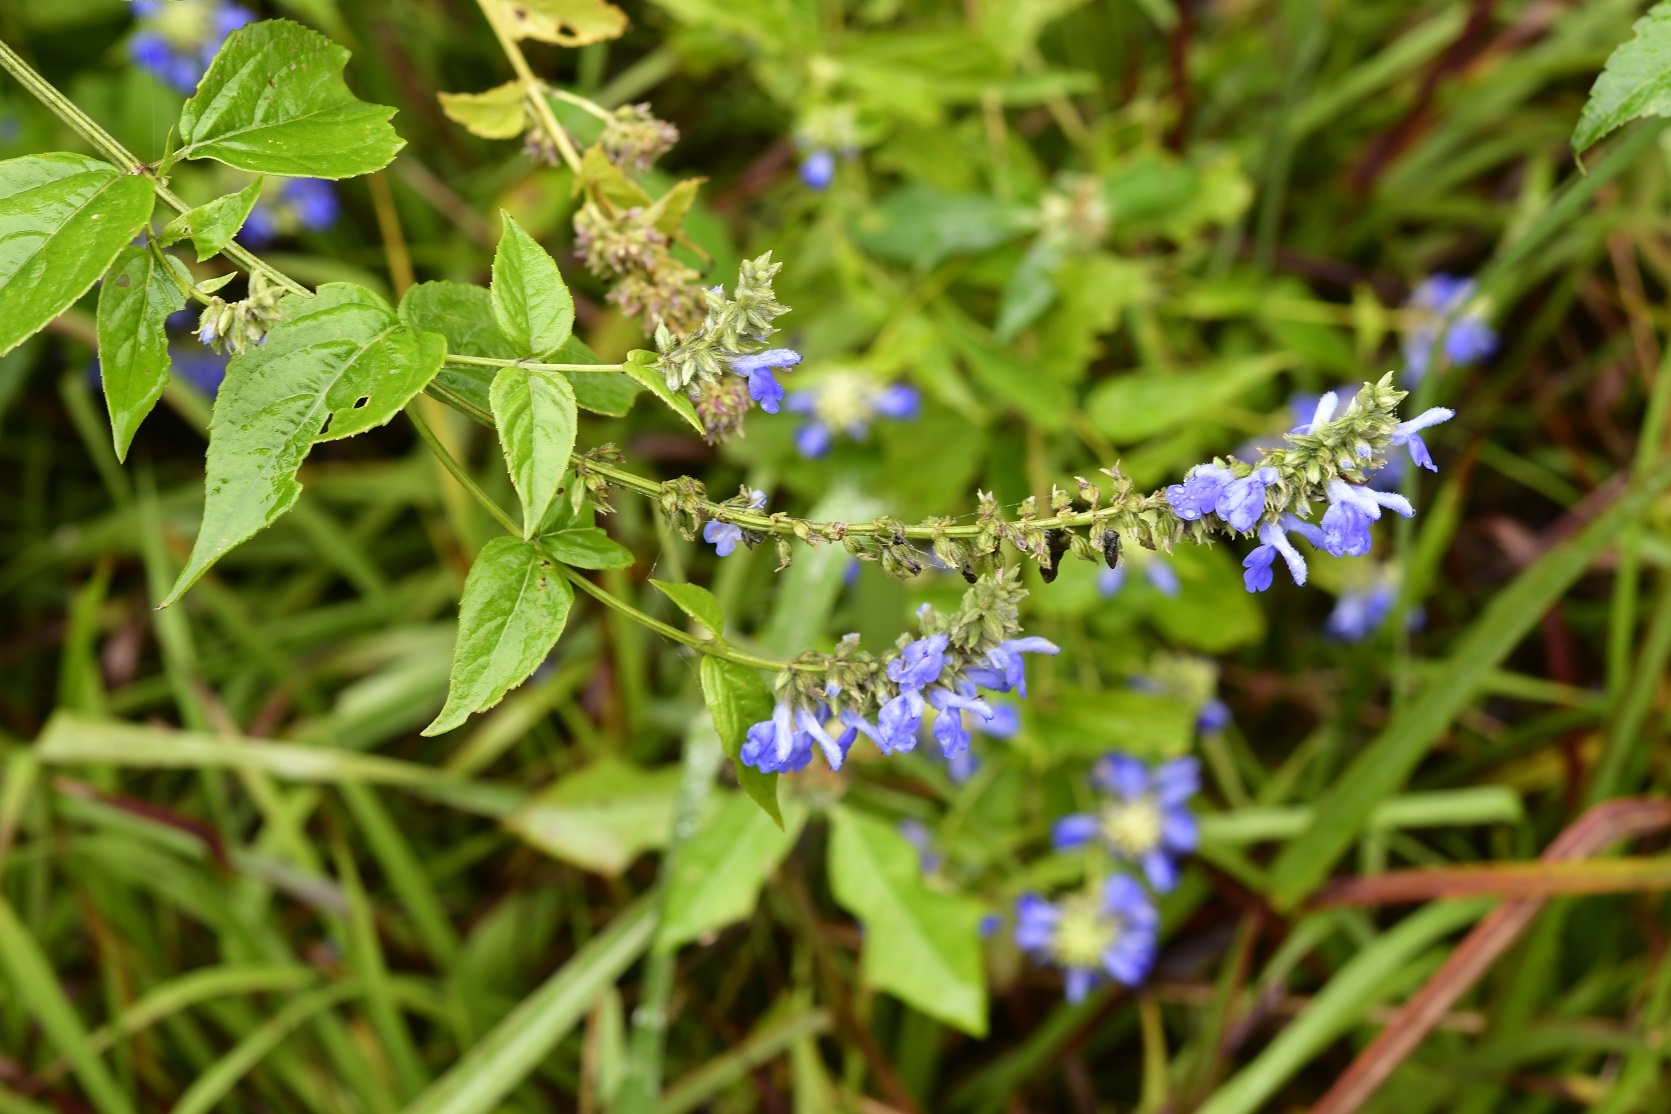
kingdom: Plantae
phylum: Tracheophyta
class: Magnoliopsida
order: Lamiales
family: Lamiaceae
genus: Salvia
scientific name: Salvia connivens
